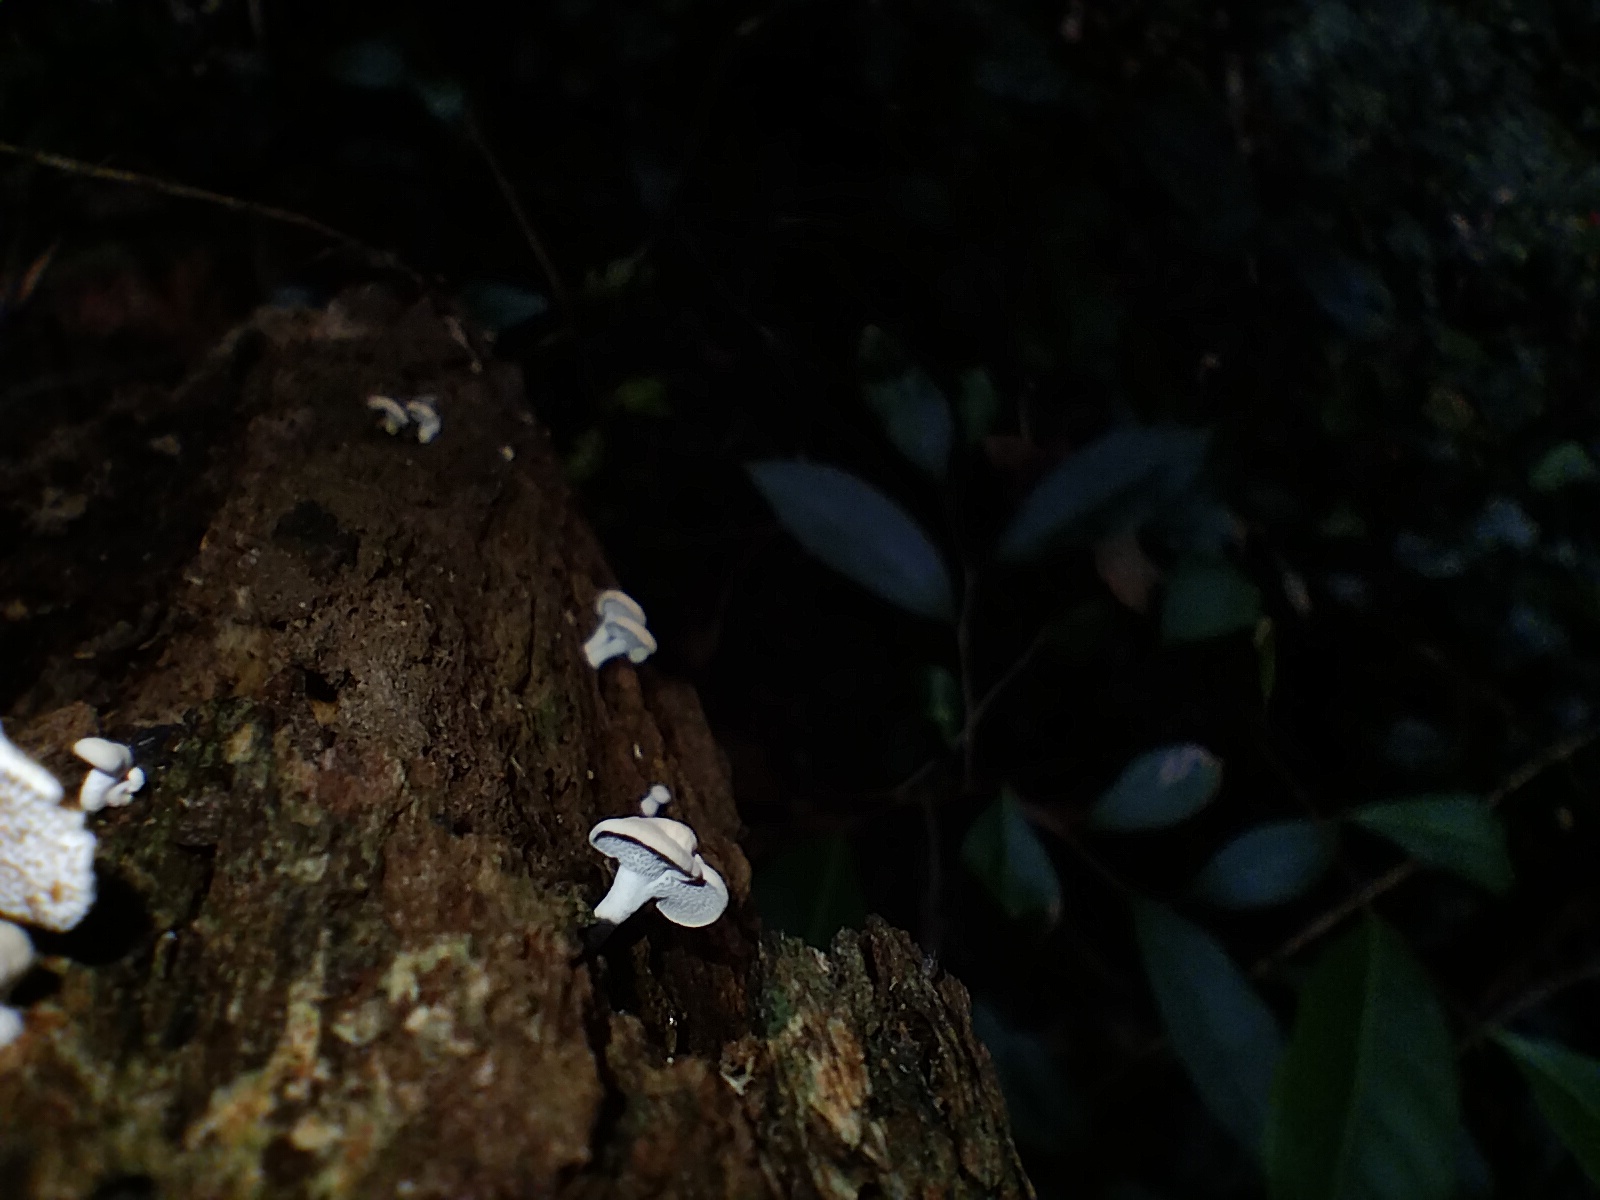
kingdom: Fungi
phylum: Basidiomycota
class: Agaricomycetes
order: Agaricales
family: Mycenaceae
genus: Panellus
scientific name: Panellus luxfilamentus
